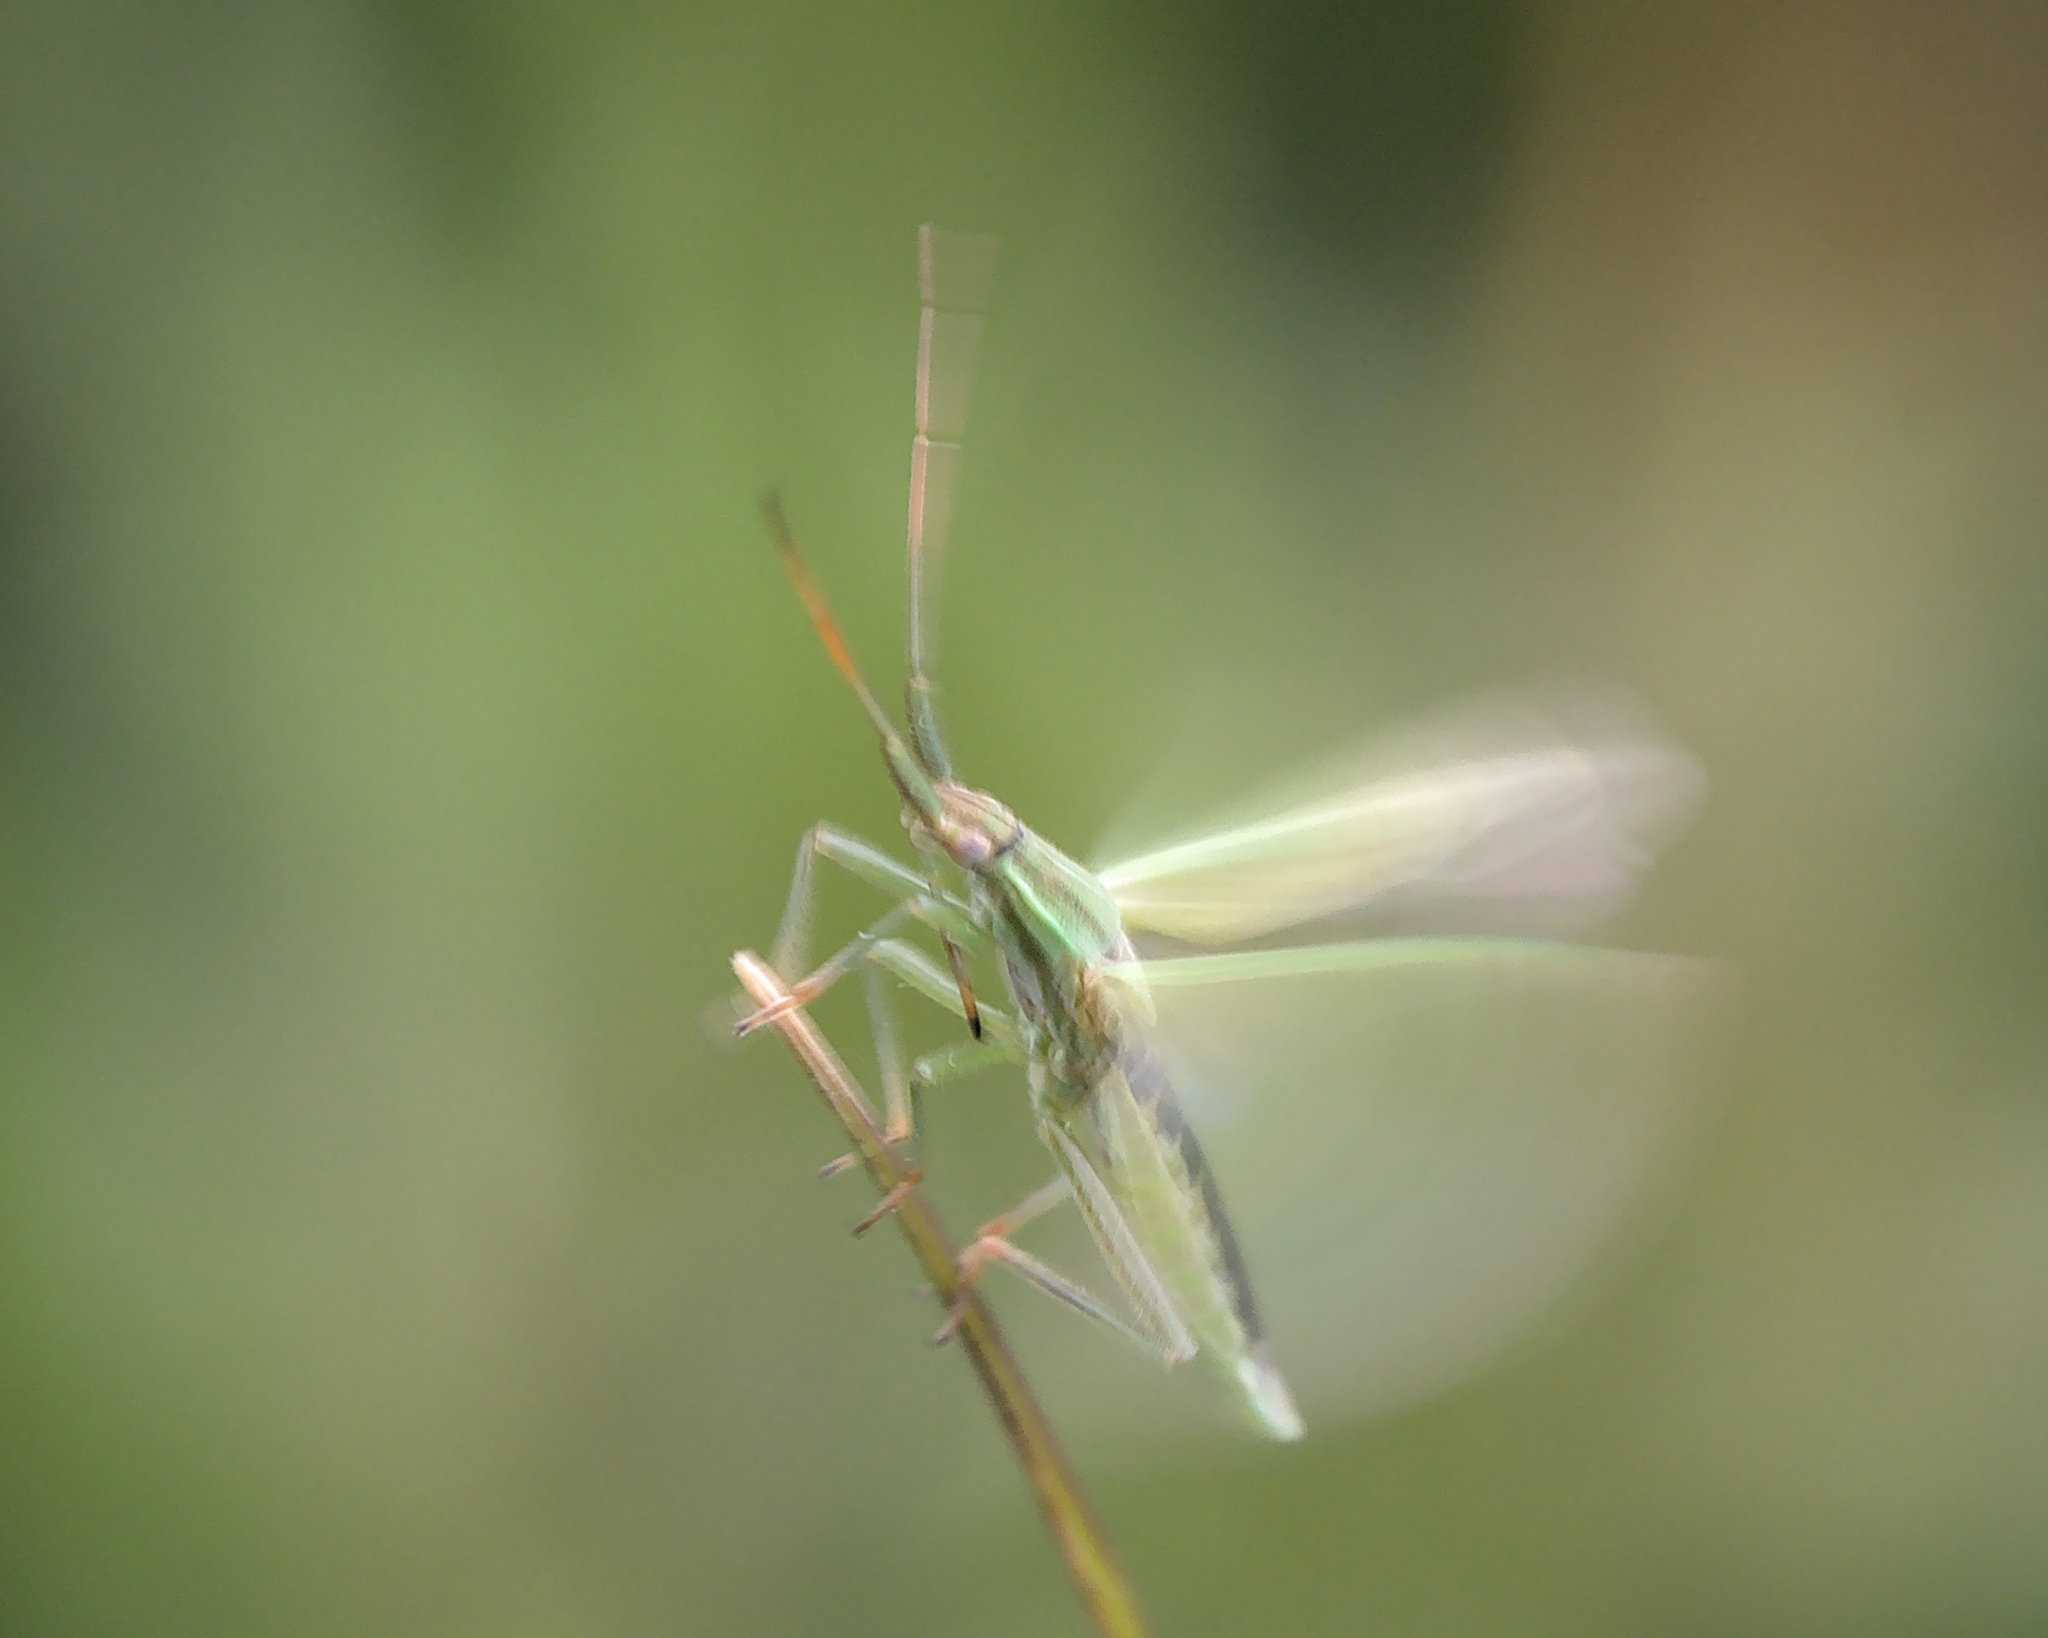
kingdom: Animalia
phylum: Arthropoda
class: Insecta
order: Hemiptera
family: Miridae
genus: Stenodema
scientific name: Stenodema laevigata
